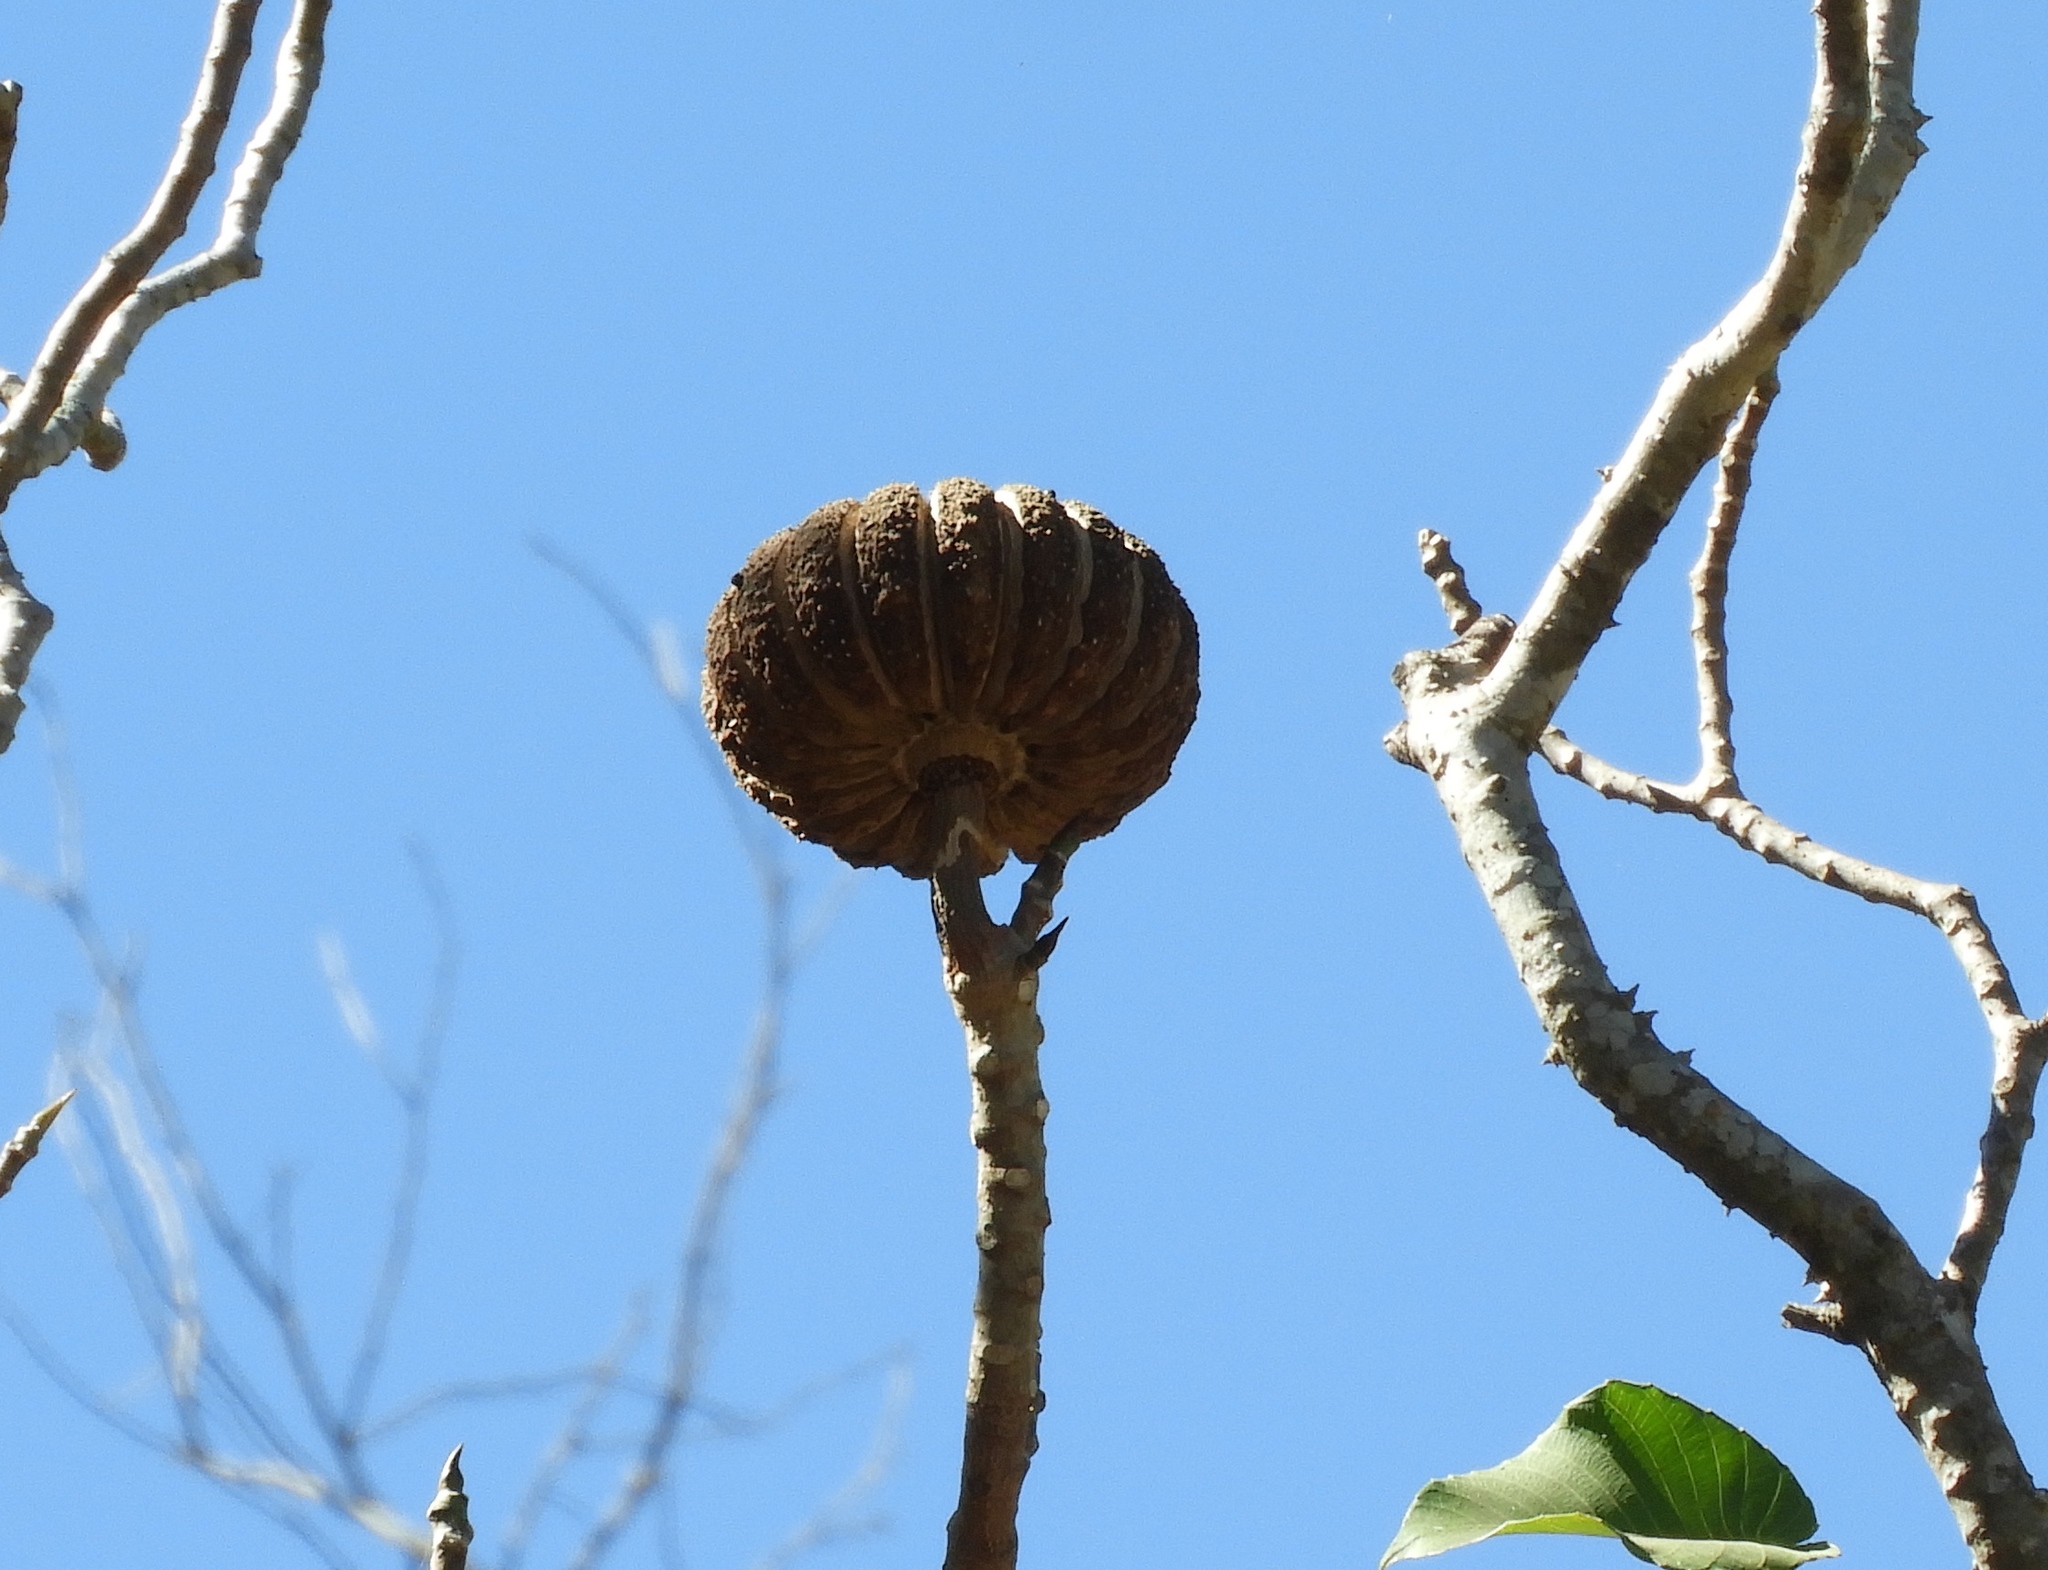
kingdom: Plantae
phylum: Tracheophyta
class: Magnoliopsida
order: Malpighiales
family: Euphorbiaceae
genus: Hura
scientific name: Hura polyandra
